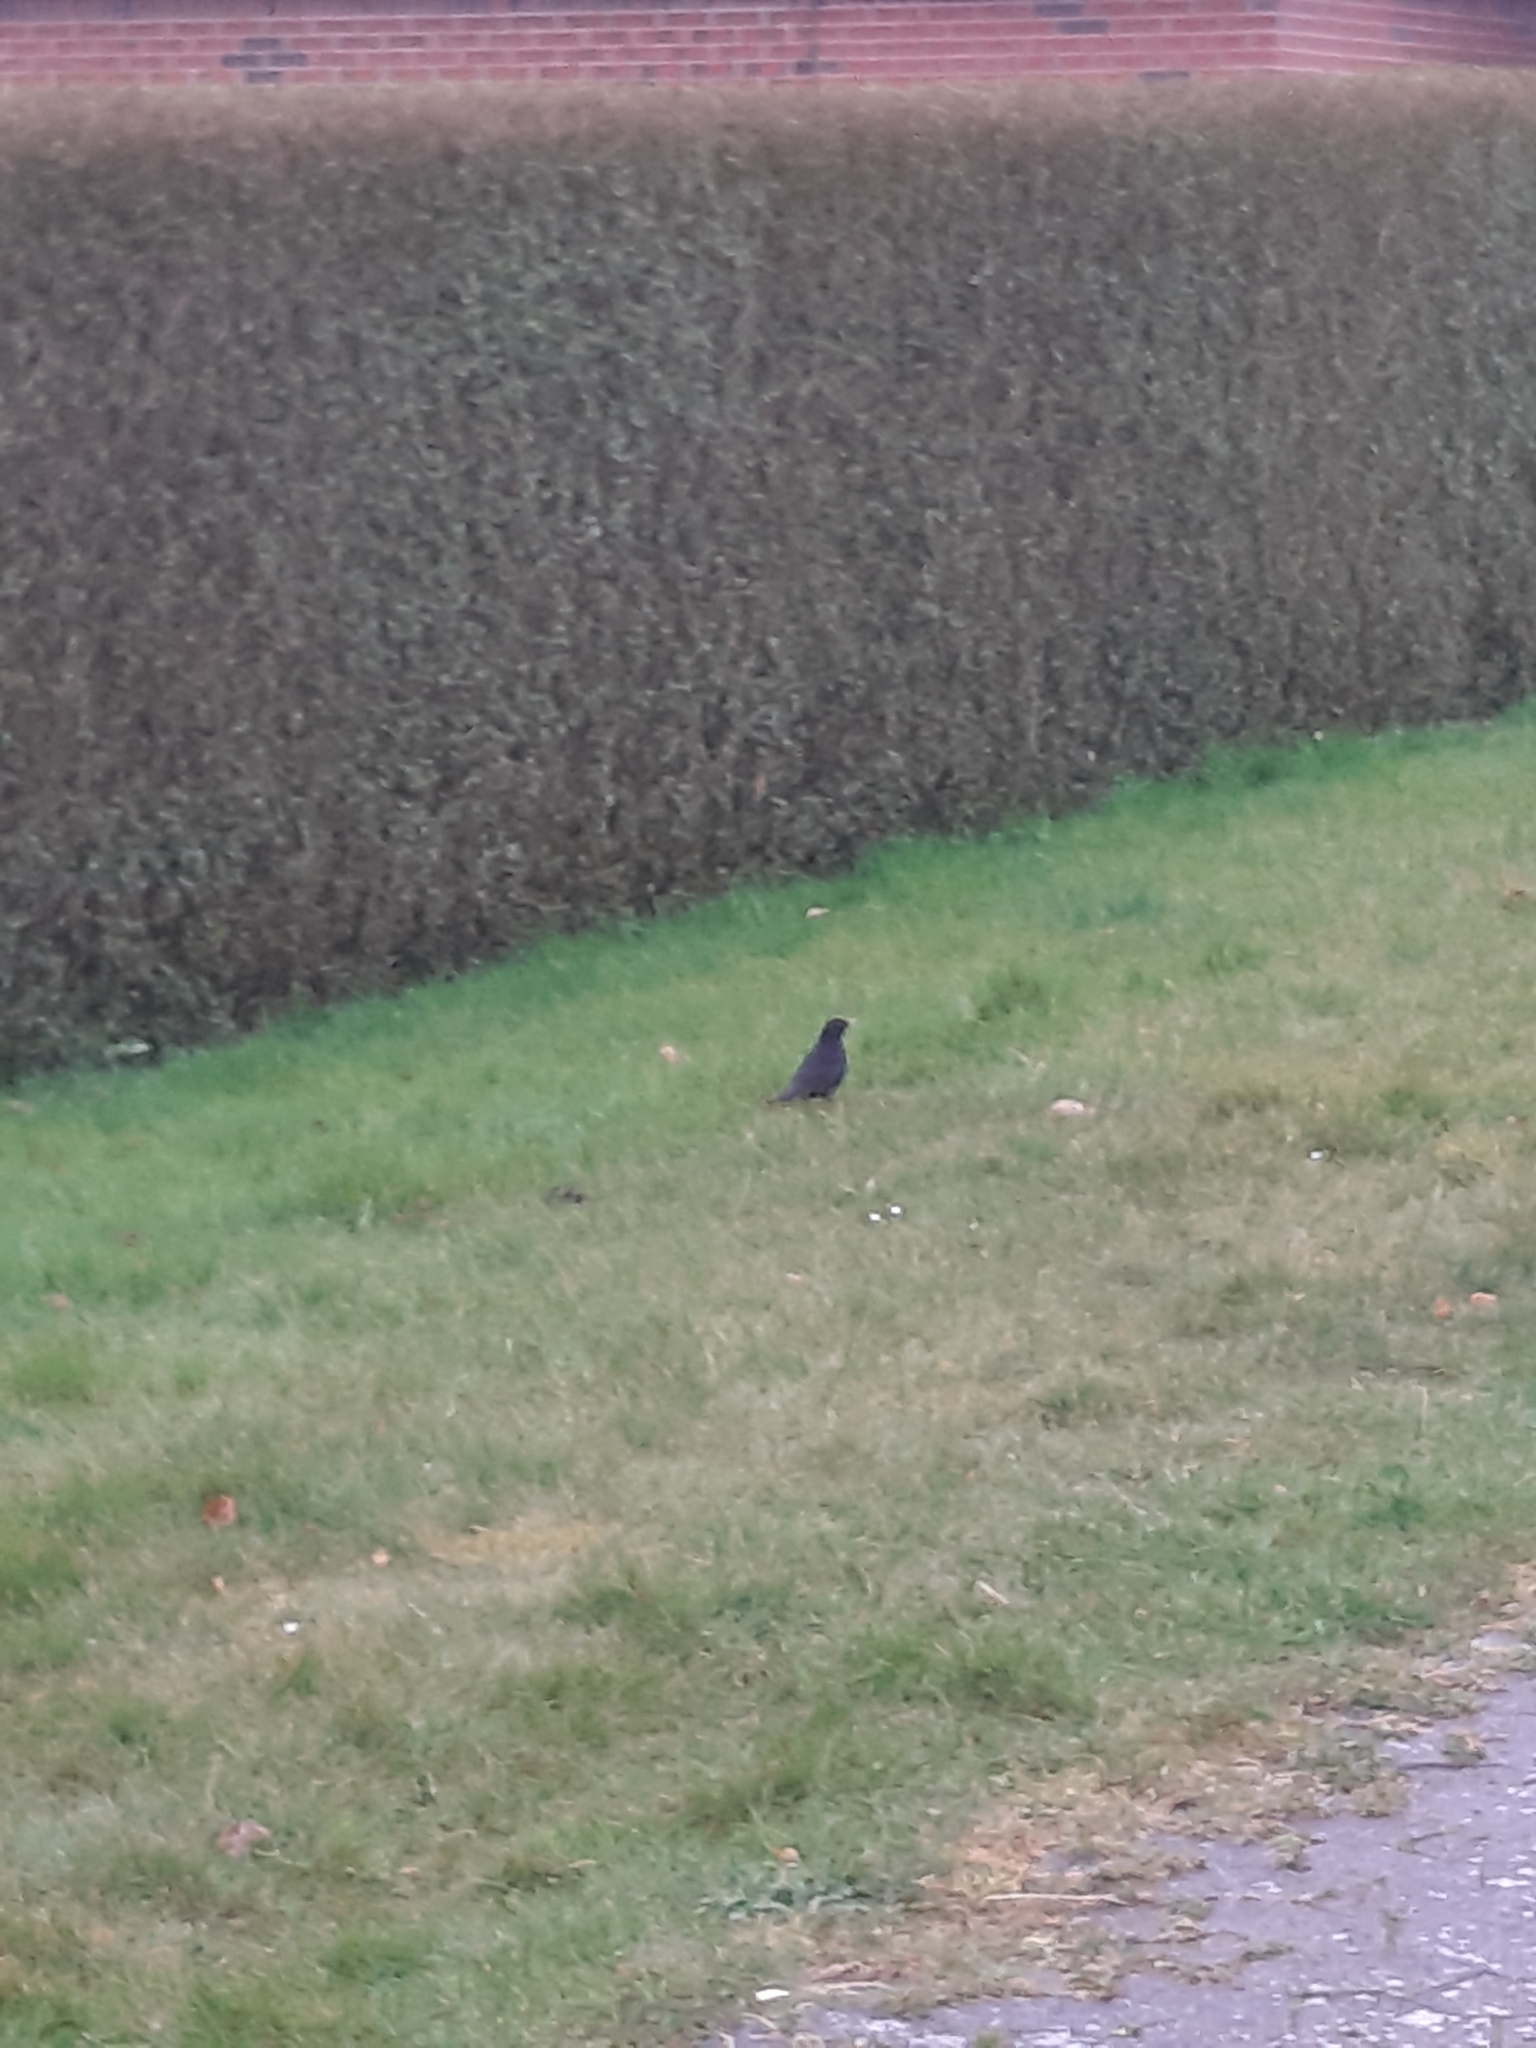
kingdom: Animalia
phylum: Chordata
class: Aves
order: Passeriformes
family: Turdidae
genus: Turdus
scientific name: Turdus merula
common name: Common blackbird
